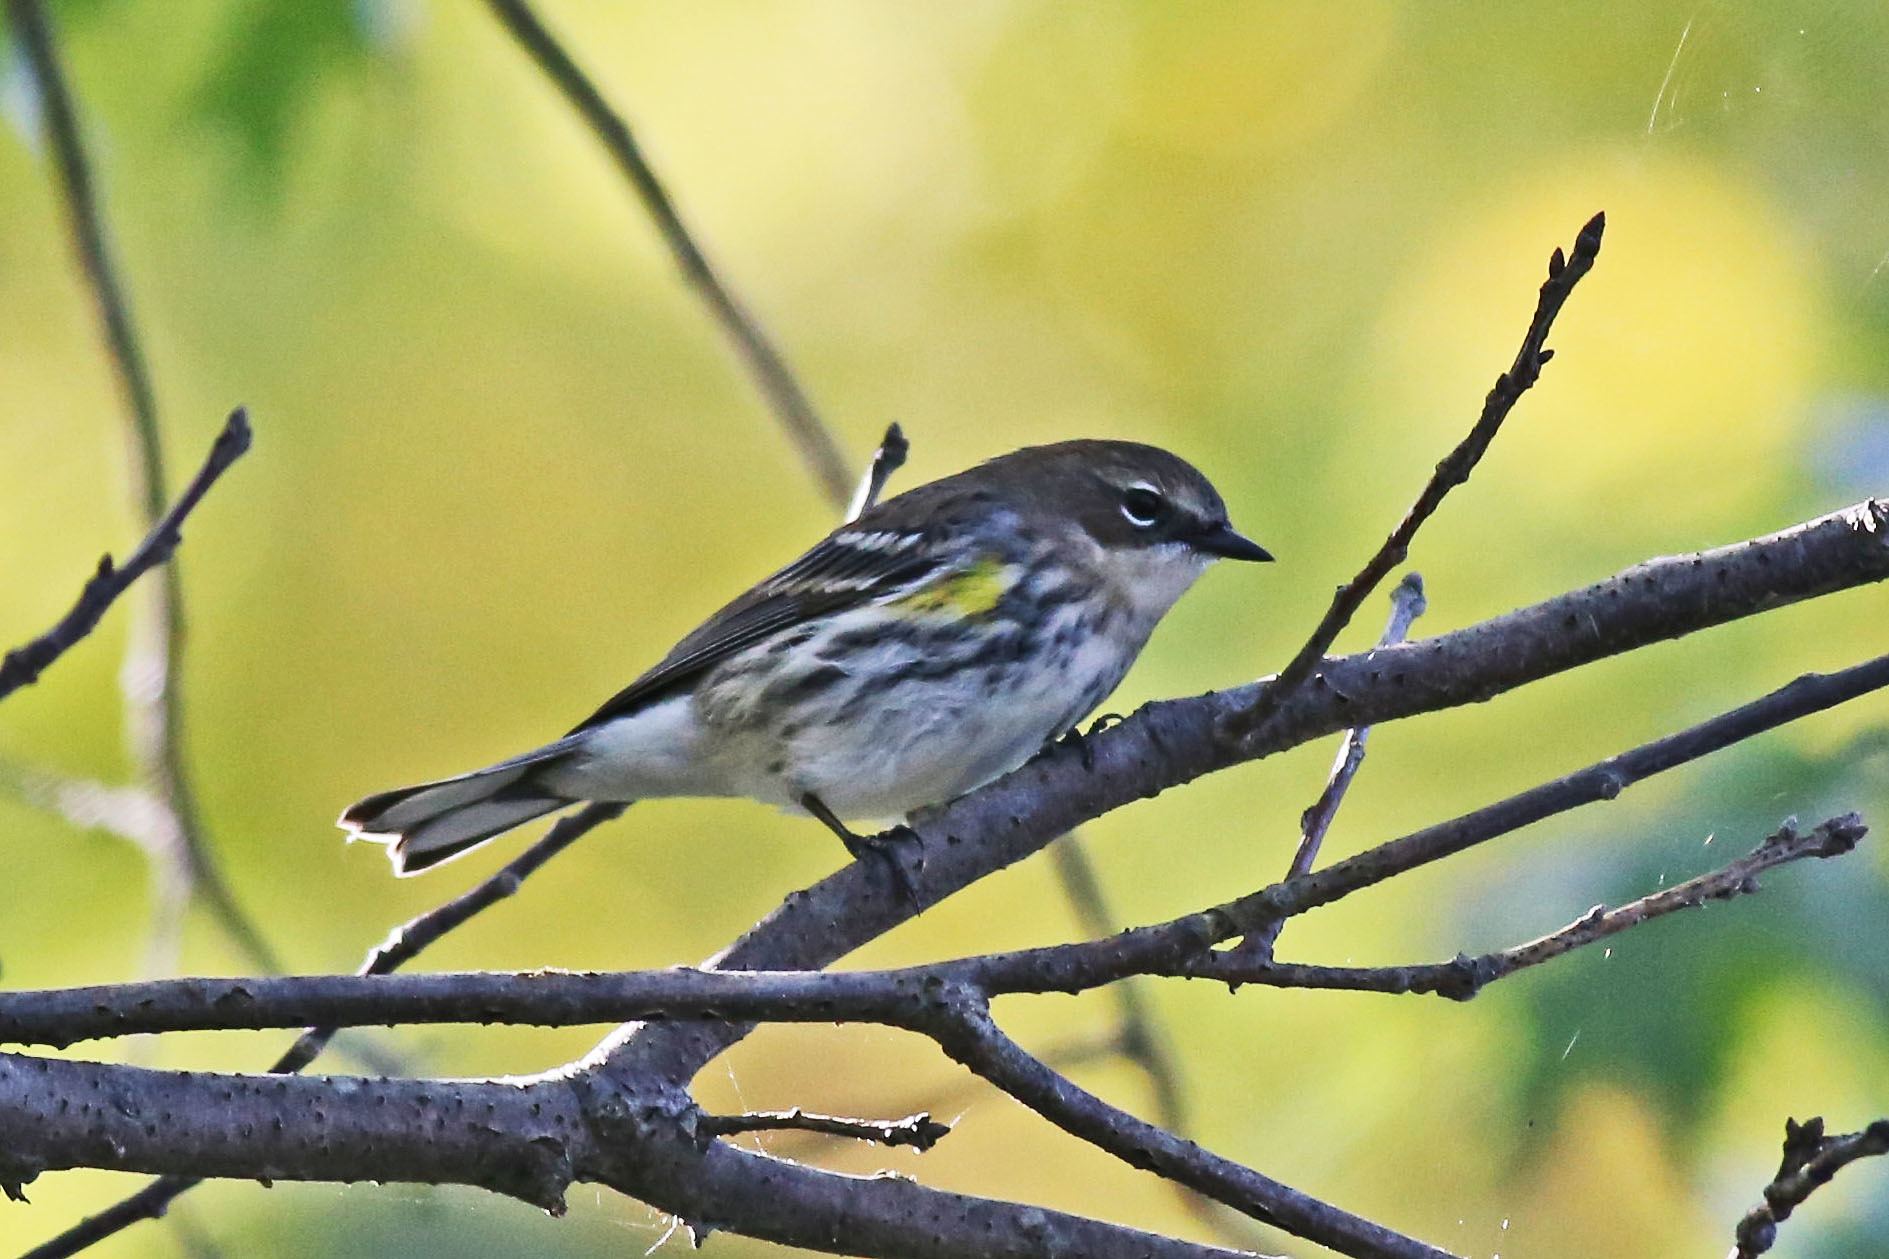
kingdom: Animalia
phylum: Chordata
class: Aves
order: Passeriformes
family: Parulidae
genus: Setophaga
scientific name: Setophaga coronata
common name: Myrtle warbler
